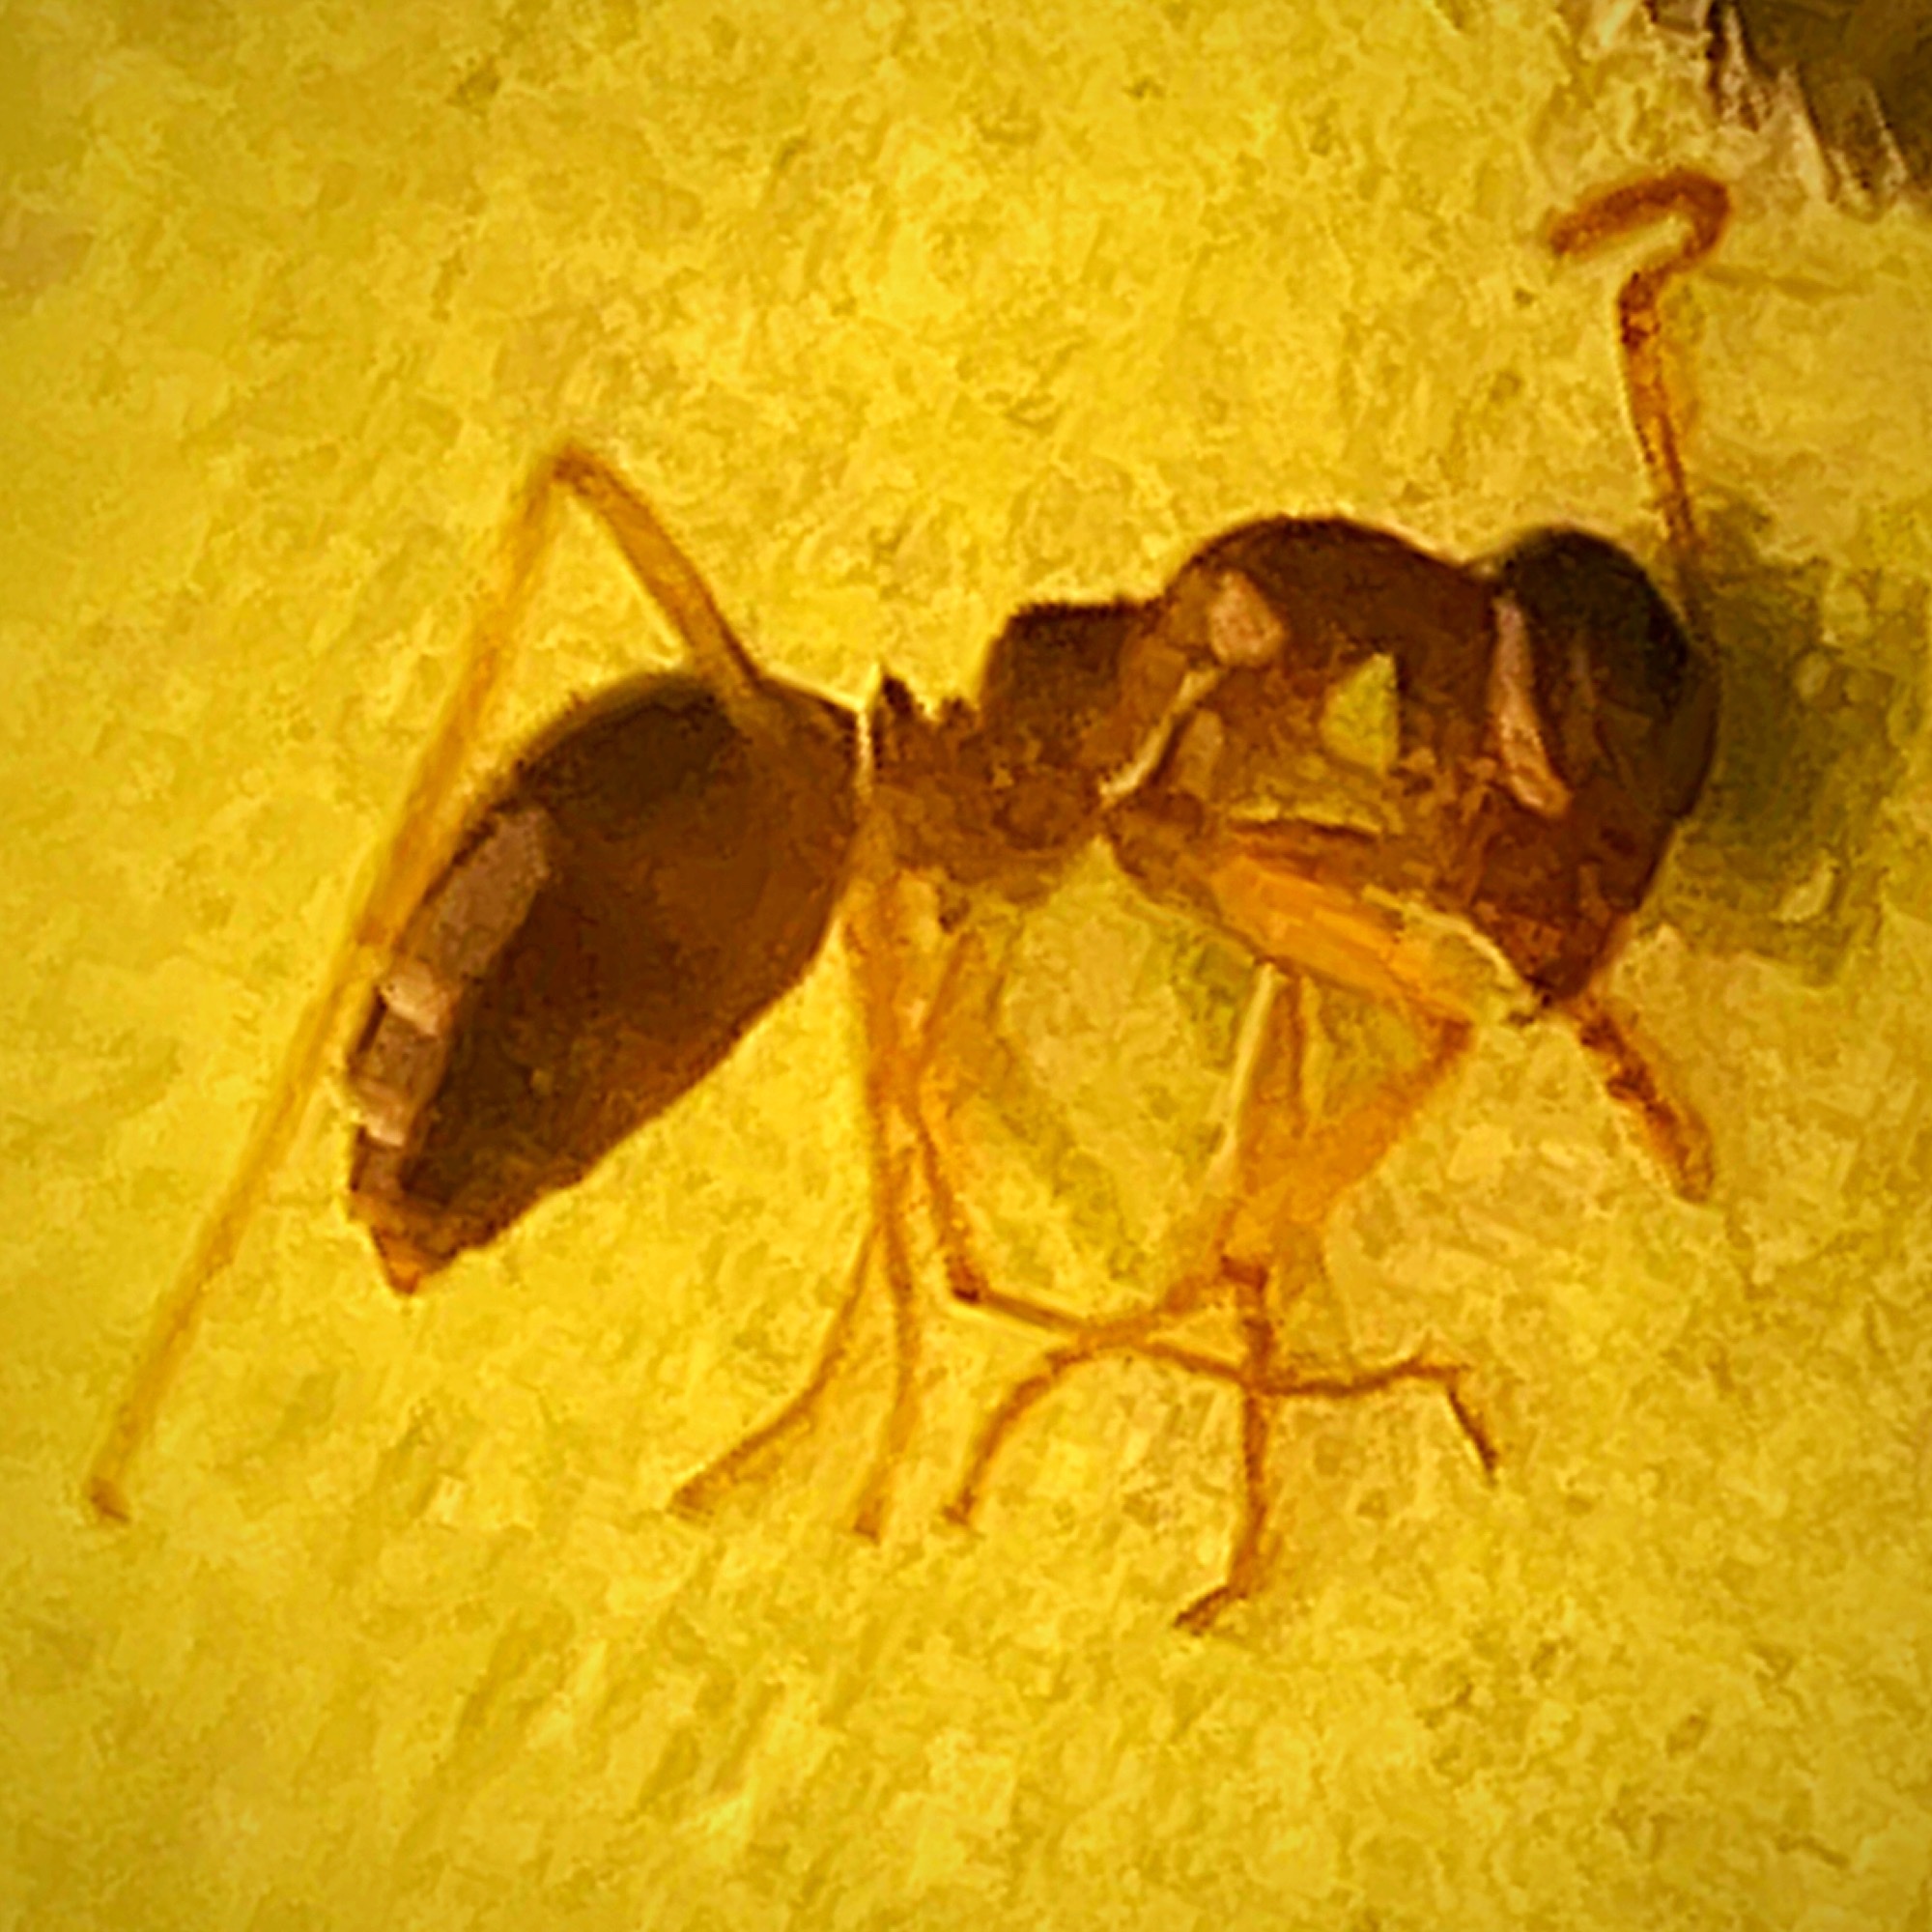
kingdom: Animalia
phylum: Arthropoda
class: Insecta
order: Hymenoptera
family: Formicidae
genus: Prenolepis
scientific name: Prenolepis imparis
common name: Small honey ant
